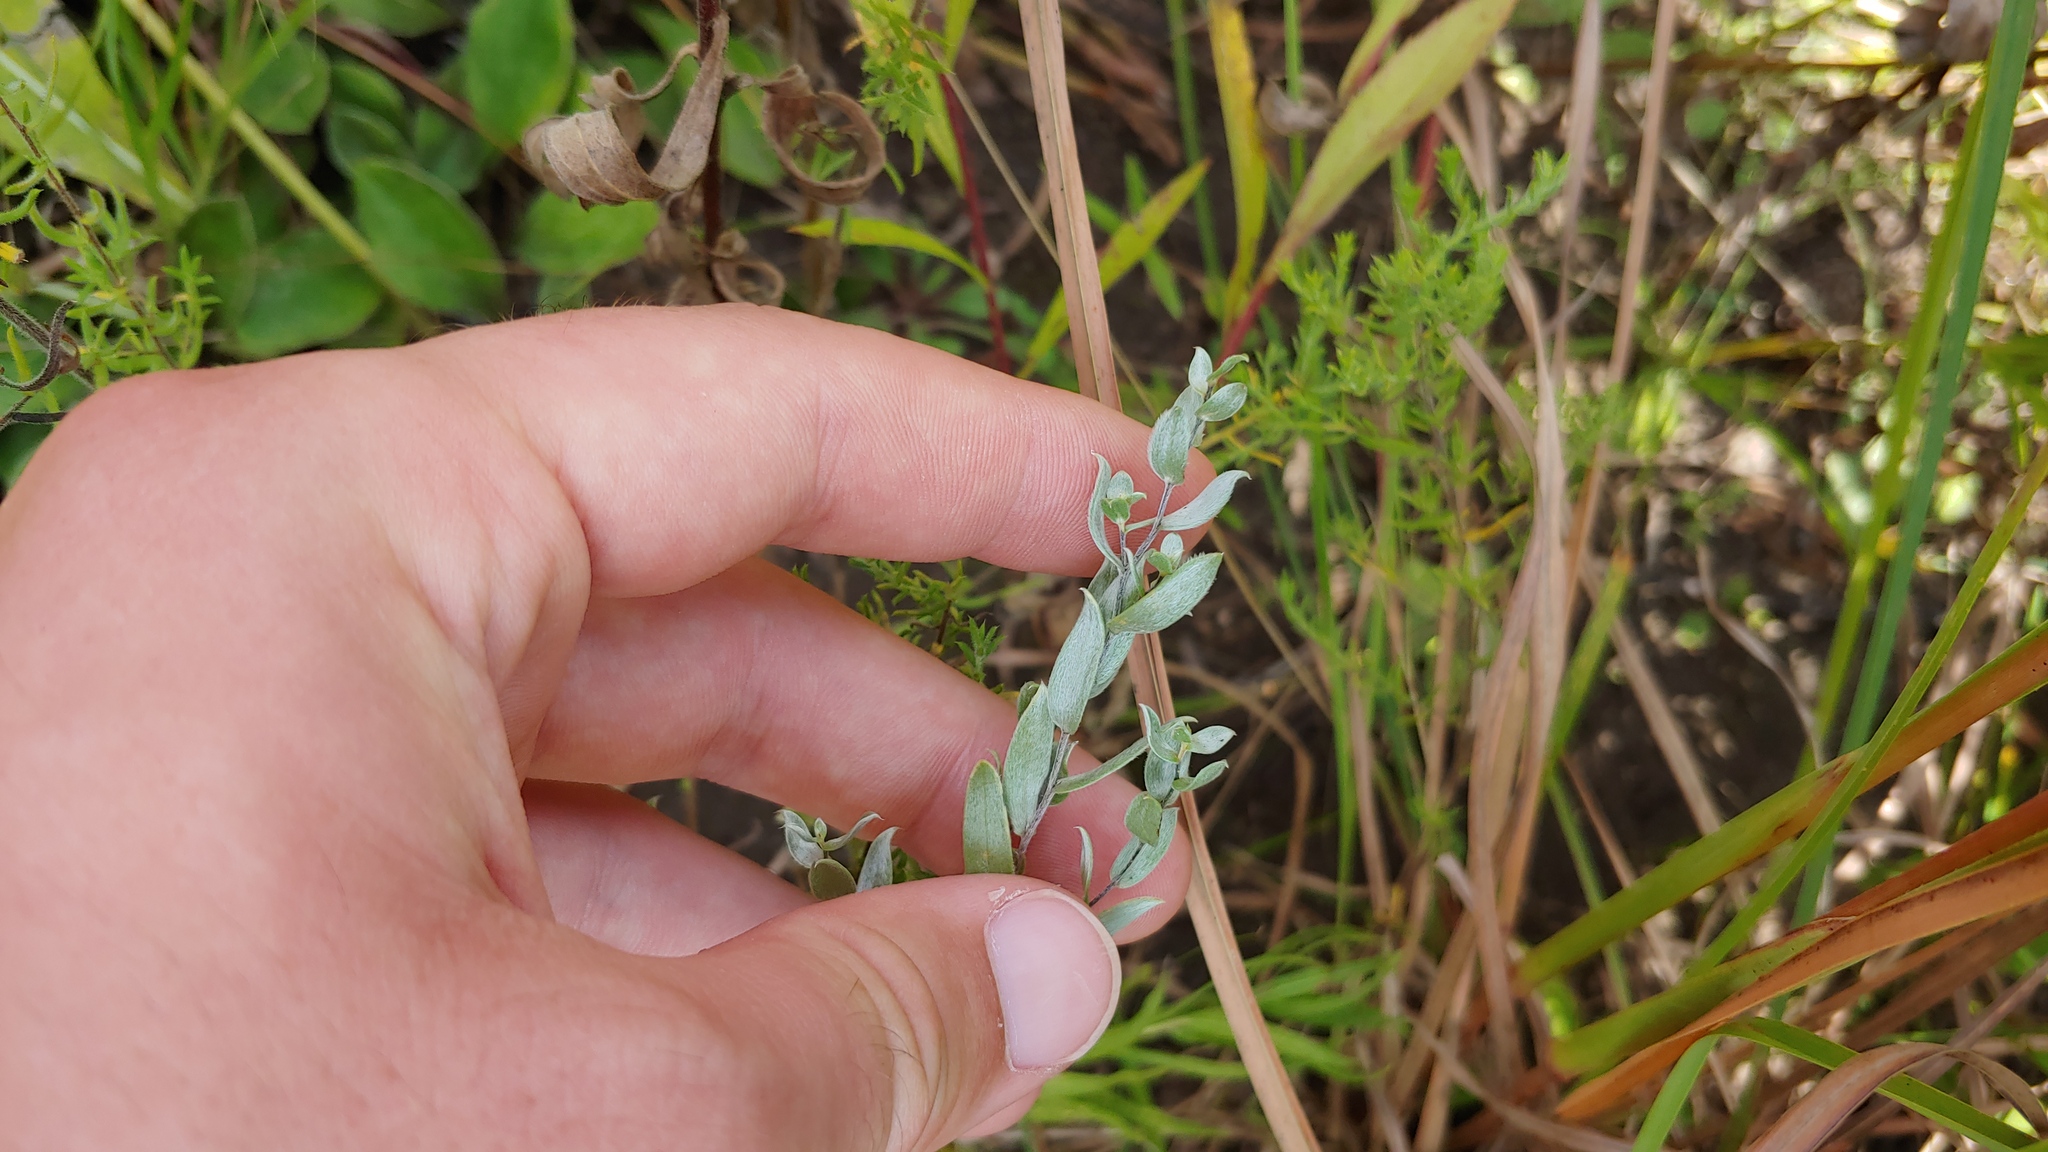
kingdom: Plantae
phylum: Tracheophyta
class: Magnoliopsida
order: Asterales
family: Asteraceae
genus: Symphyotrichum
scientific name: Symphyotrichum sericeum
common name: Silky aster
